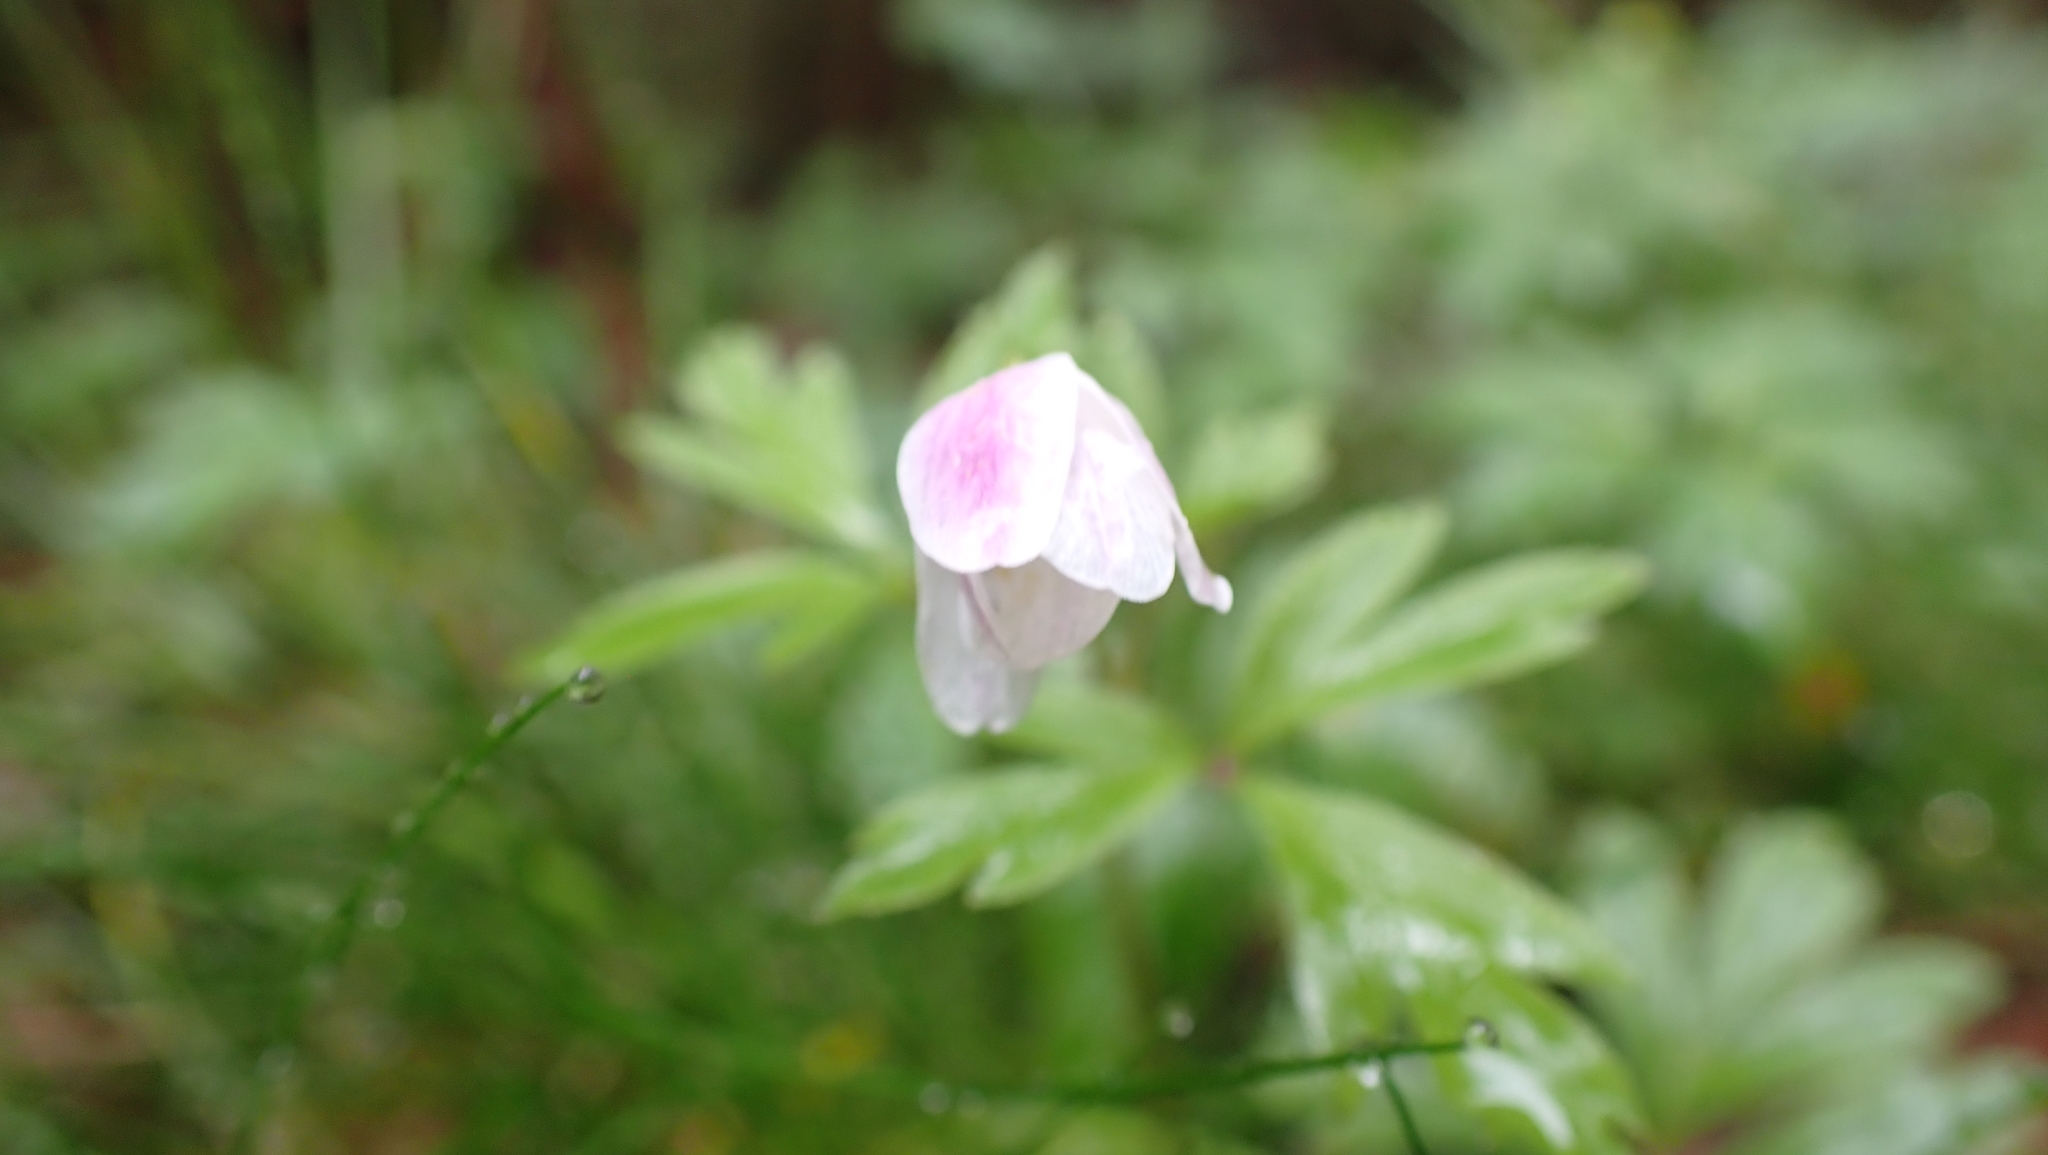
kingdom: Plantae
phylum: Tracheophyta
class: Magnoliopsida
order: Ranunculales
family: Ranunculaceae
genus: Anemone
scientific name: Anemone nemorosa
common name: Wood anemone
